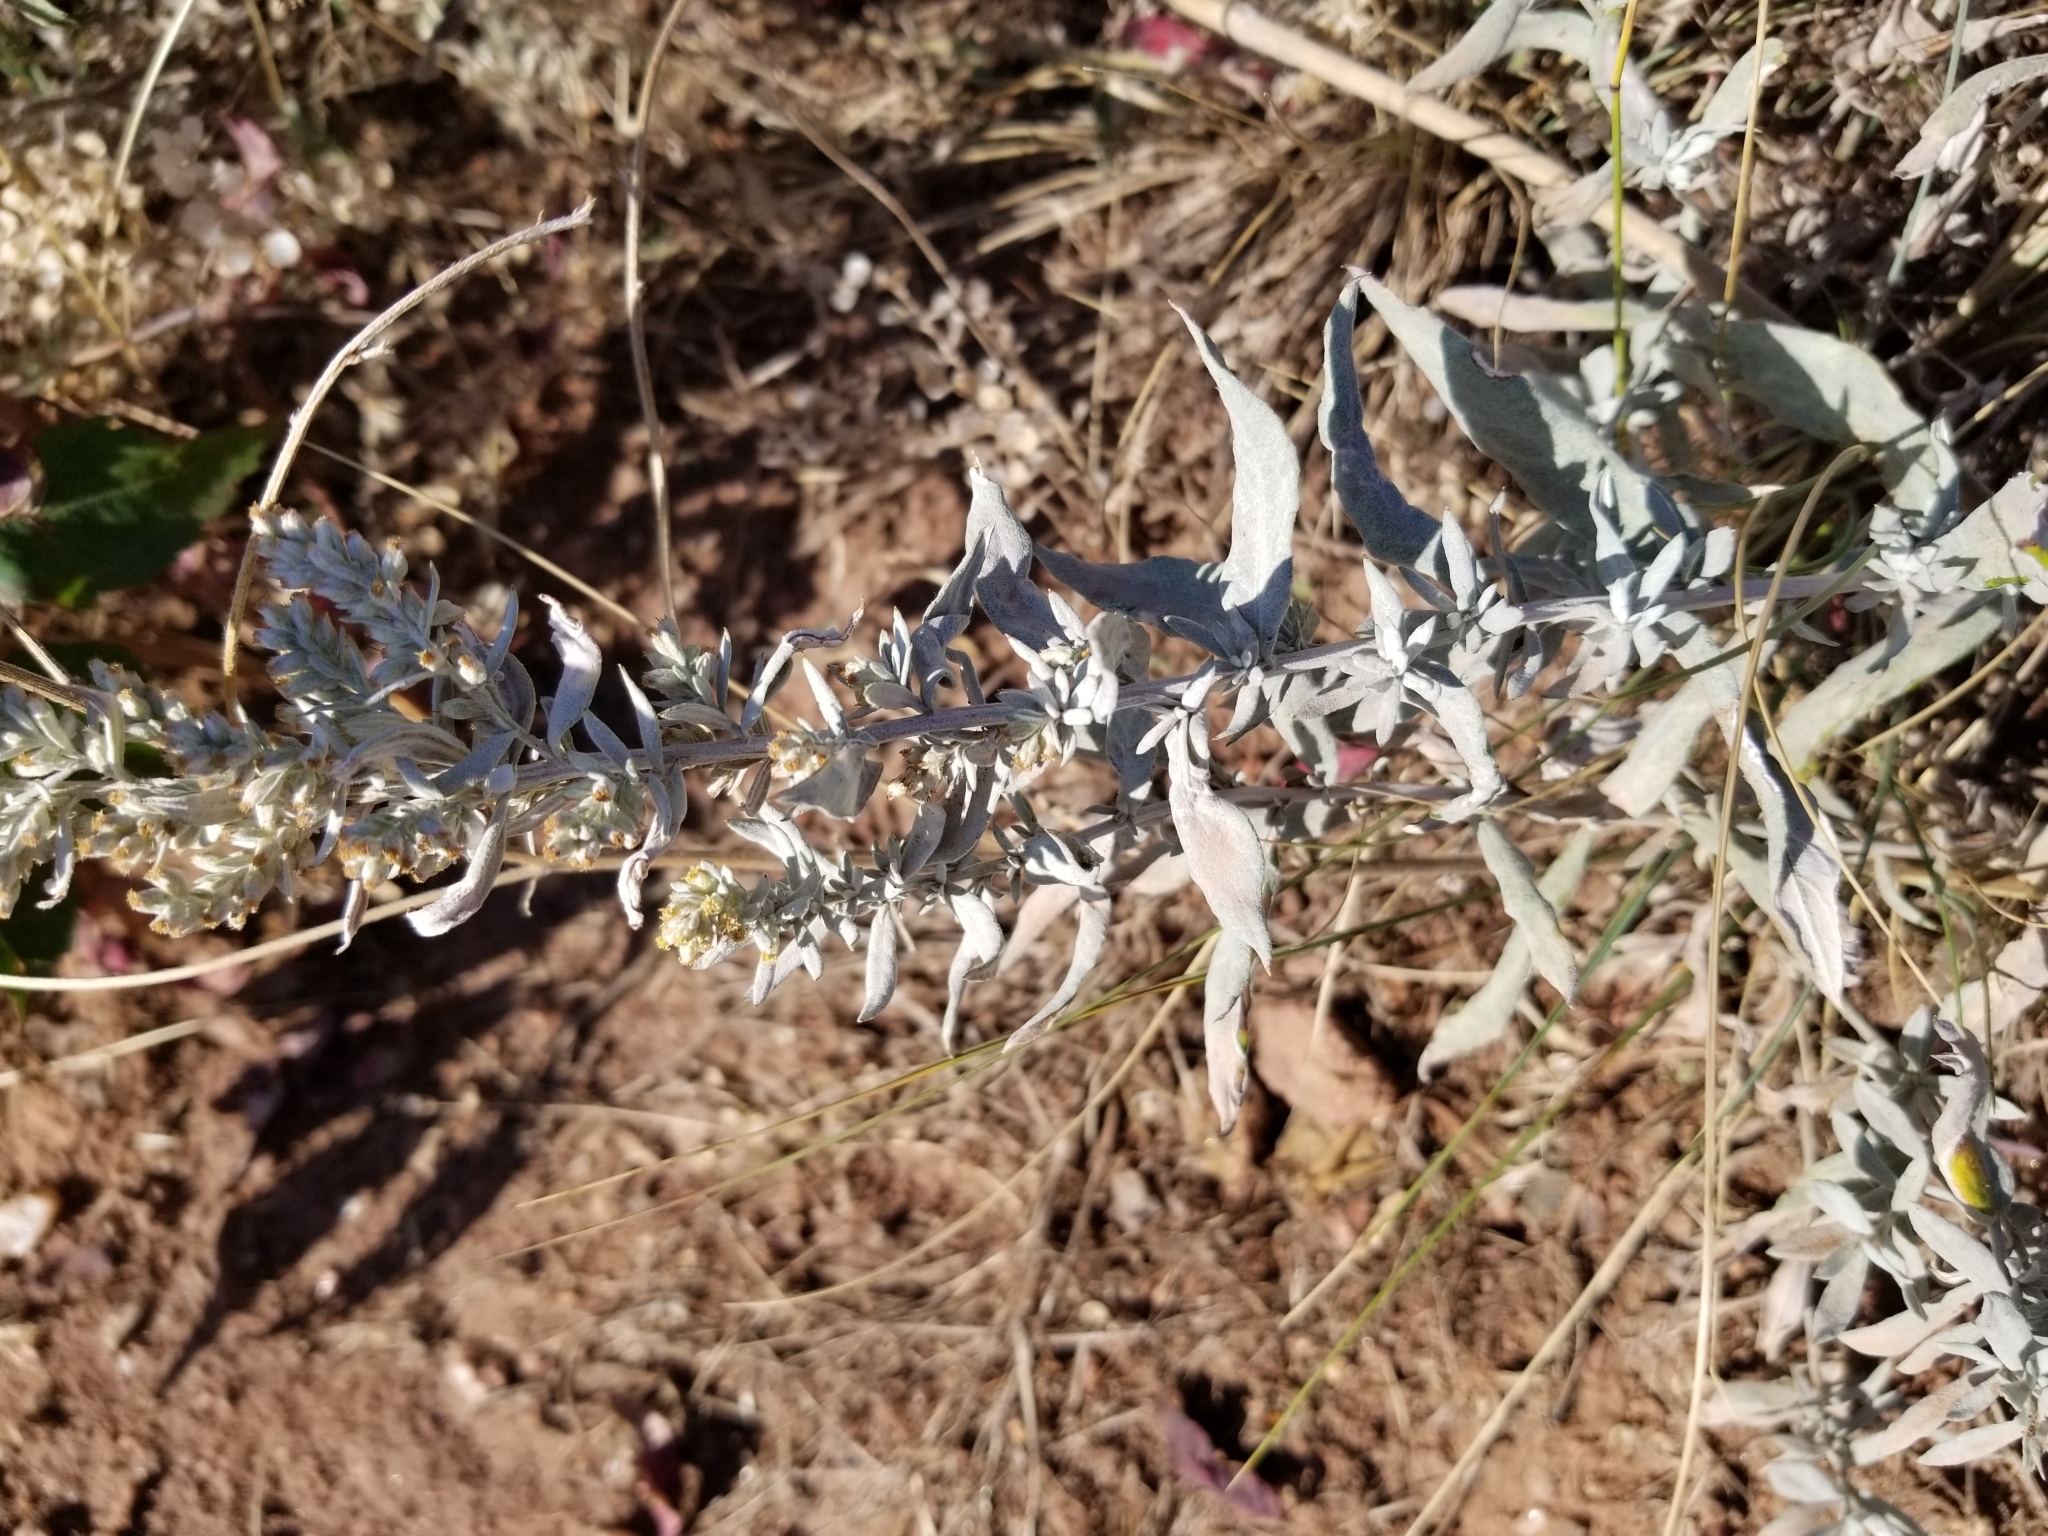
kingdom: Plantae
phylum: Tracheophyta
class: Magnoliopsida
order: Asterales
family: Asteraceae
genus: Artemisia
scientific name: Artemisia ludoviciana
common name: Western mugwort
